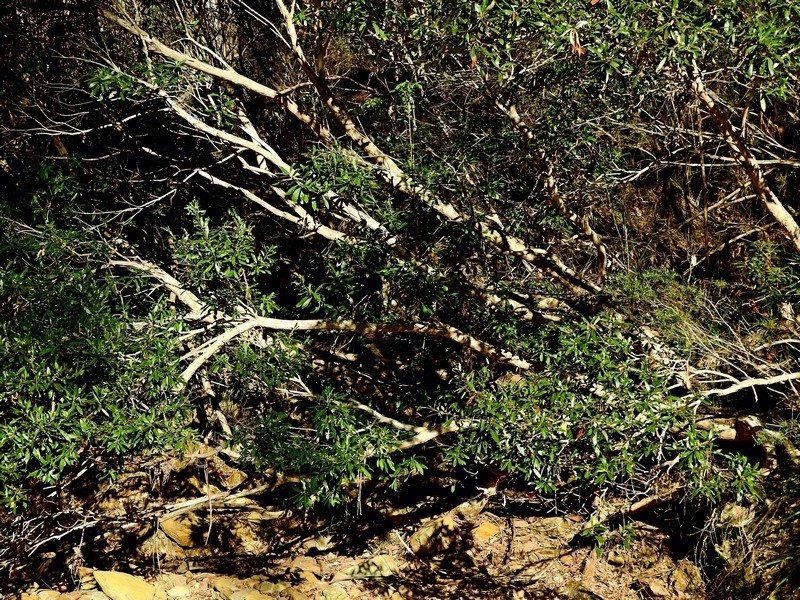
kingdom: Plantae
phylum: Tracheophyta
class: Magnoliopsida
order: Myrtales
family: Myrtaceae
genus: Tristaniopsis
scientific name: Tristaniopsis laurina
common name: Water-gum
